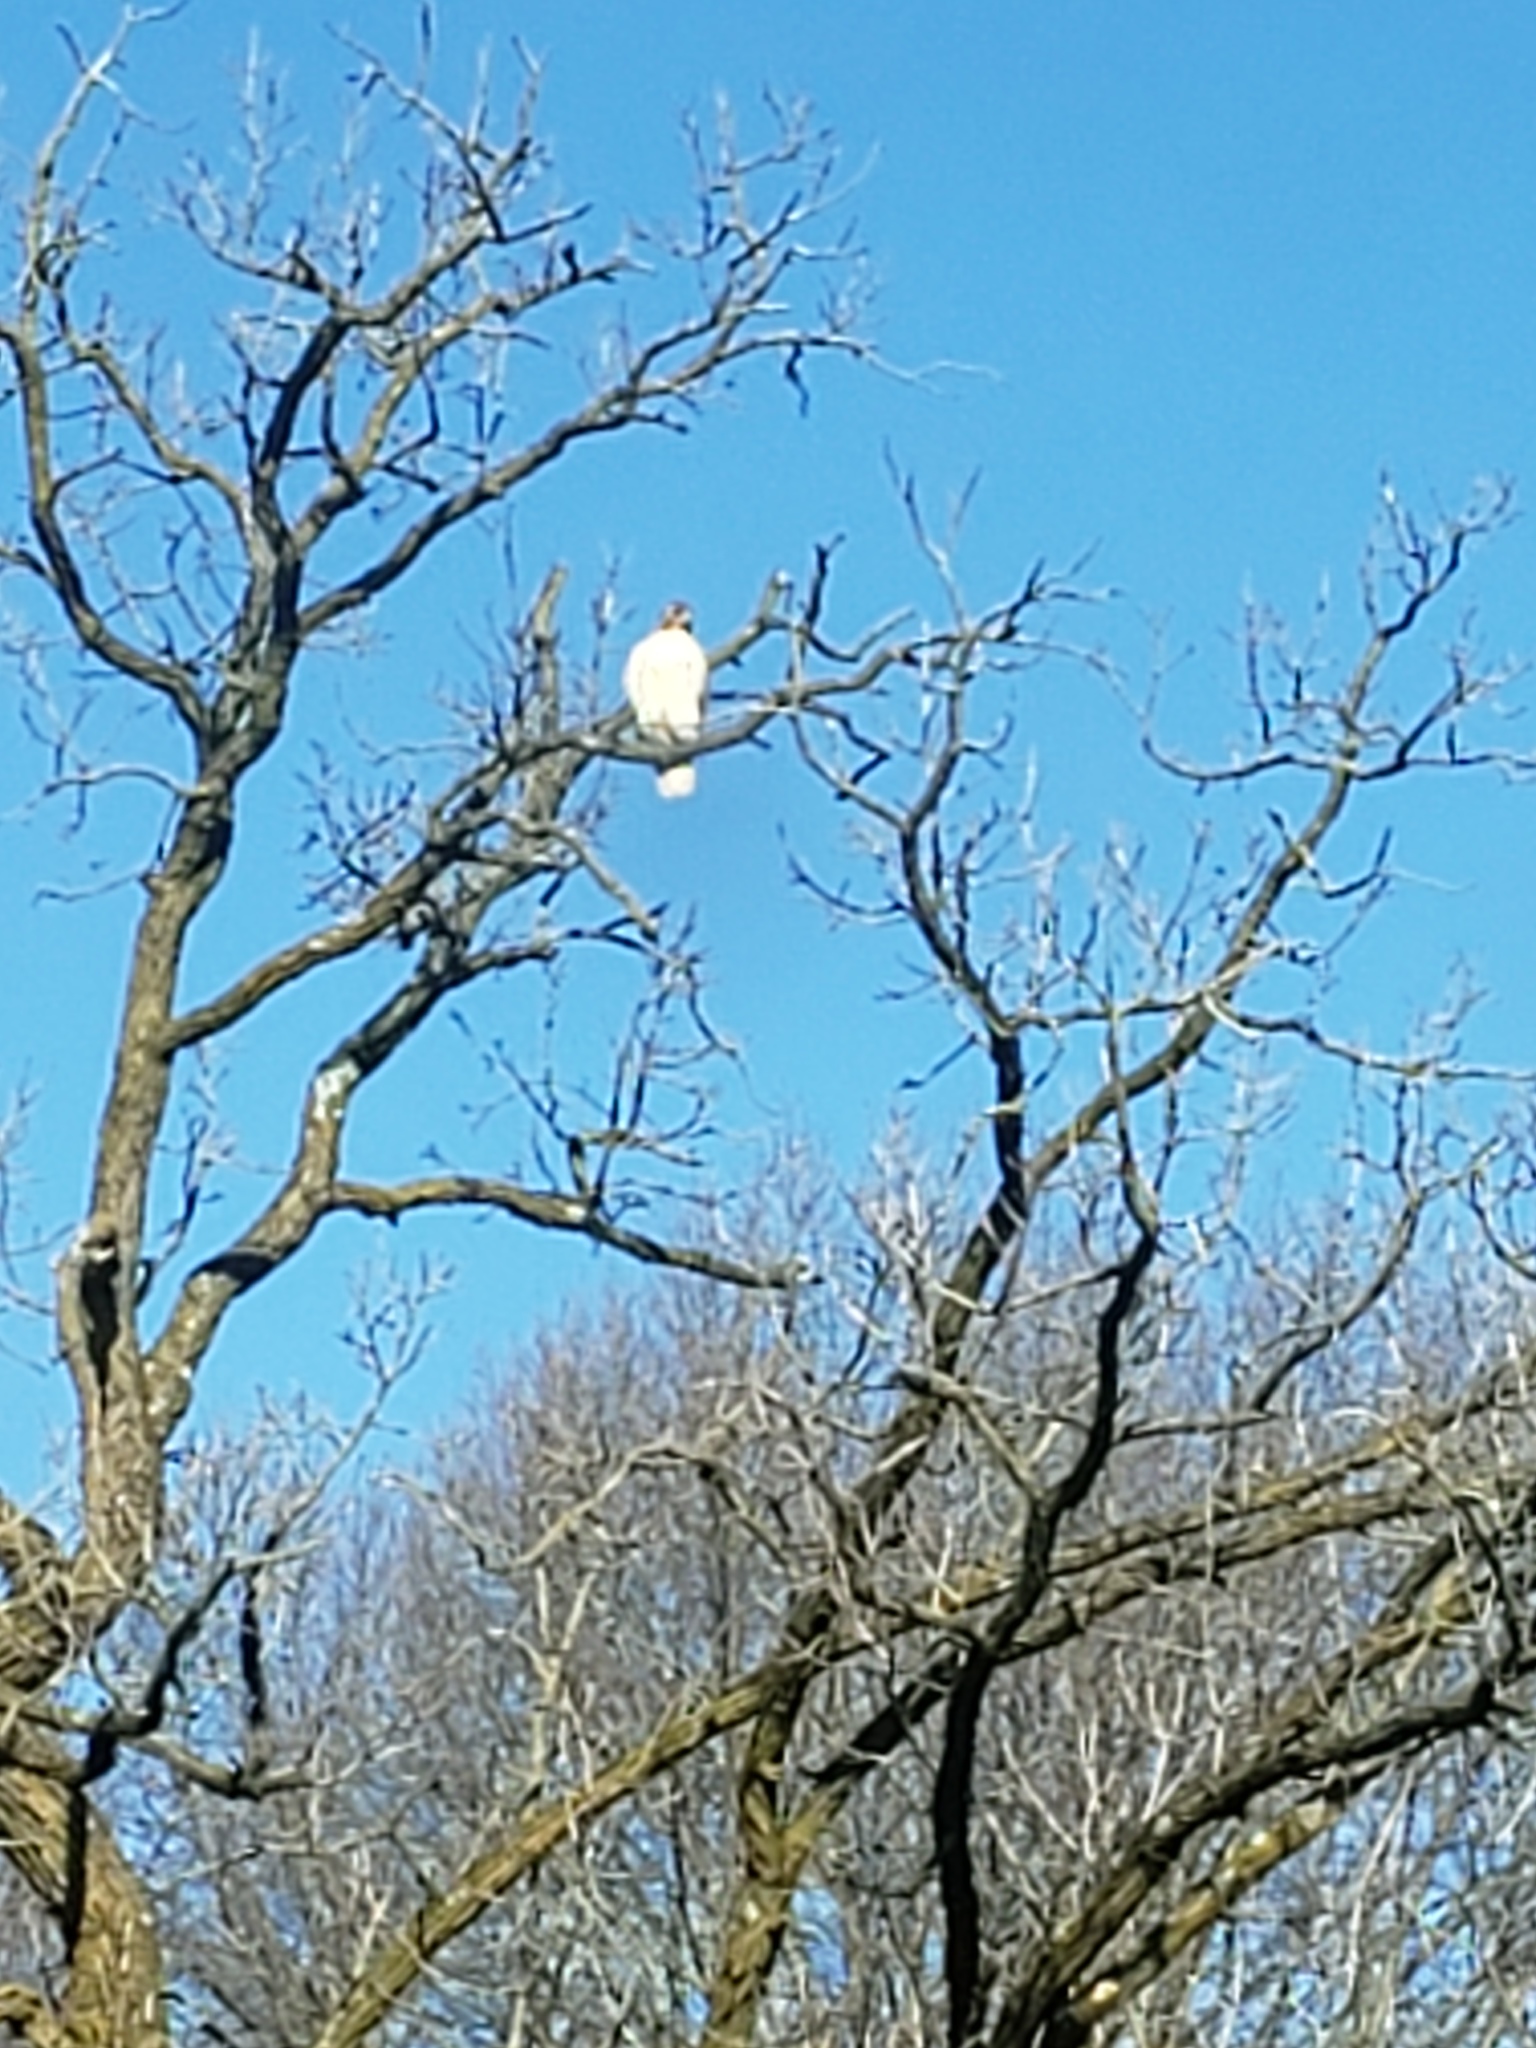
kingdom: Animalia
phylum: Chordata
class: Aves
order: Accipitriformes
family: Accipitridae
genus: Buteo
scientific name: Buteo jamaicensis
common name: Red-tailed hawk
